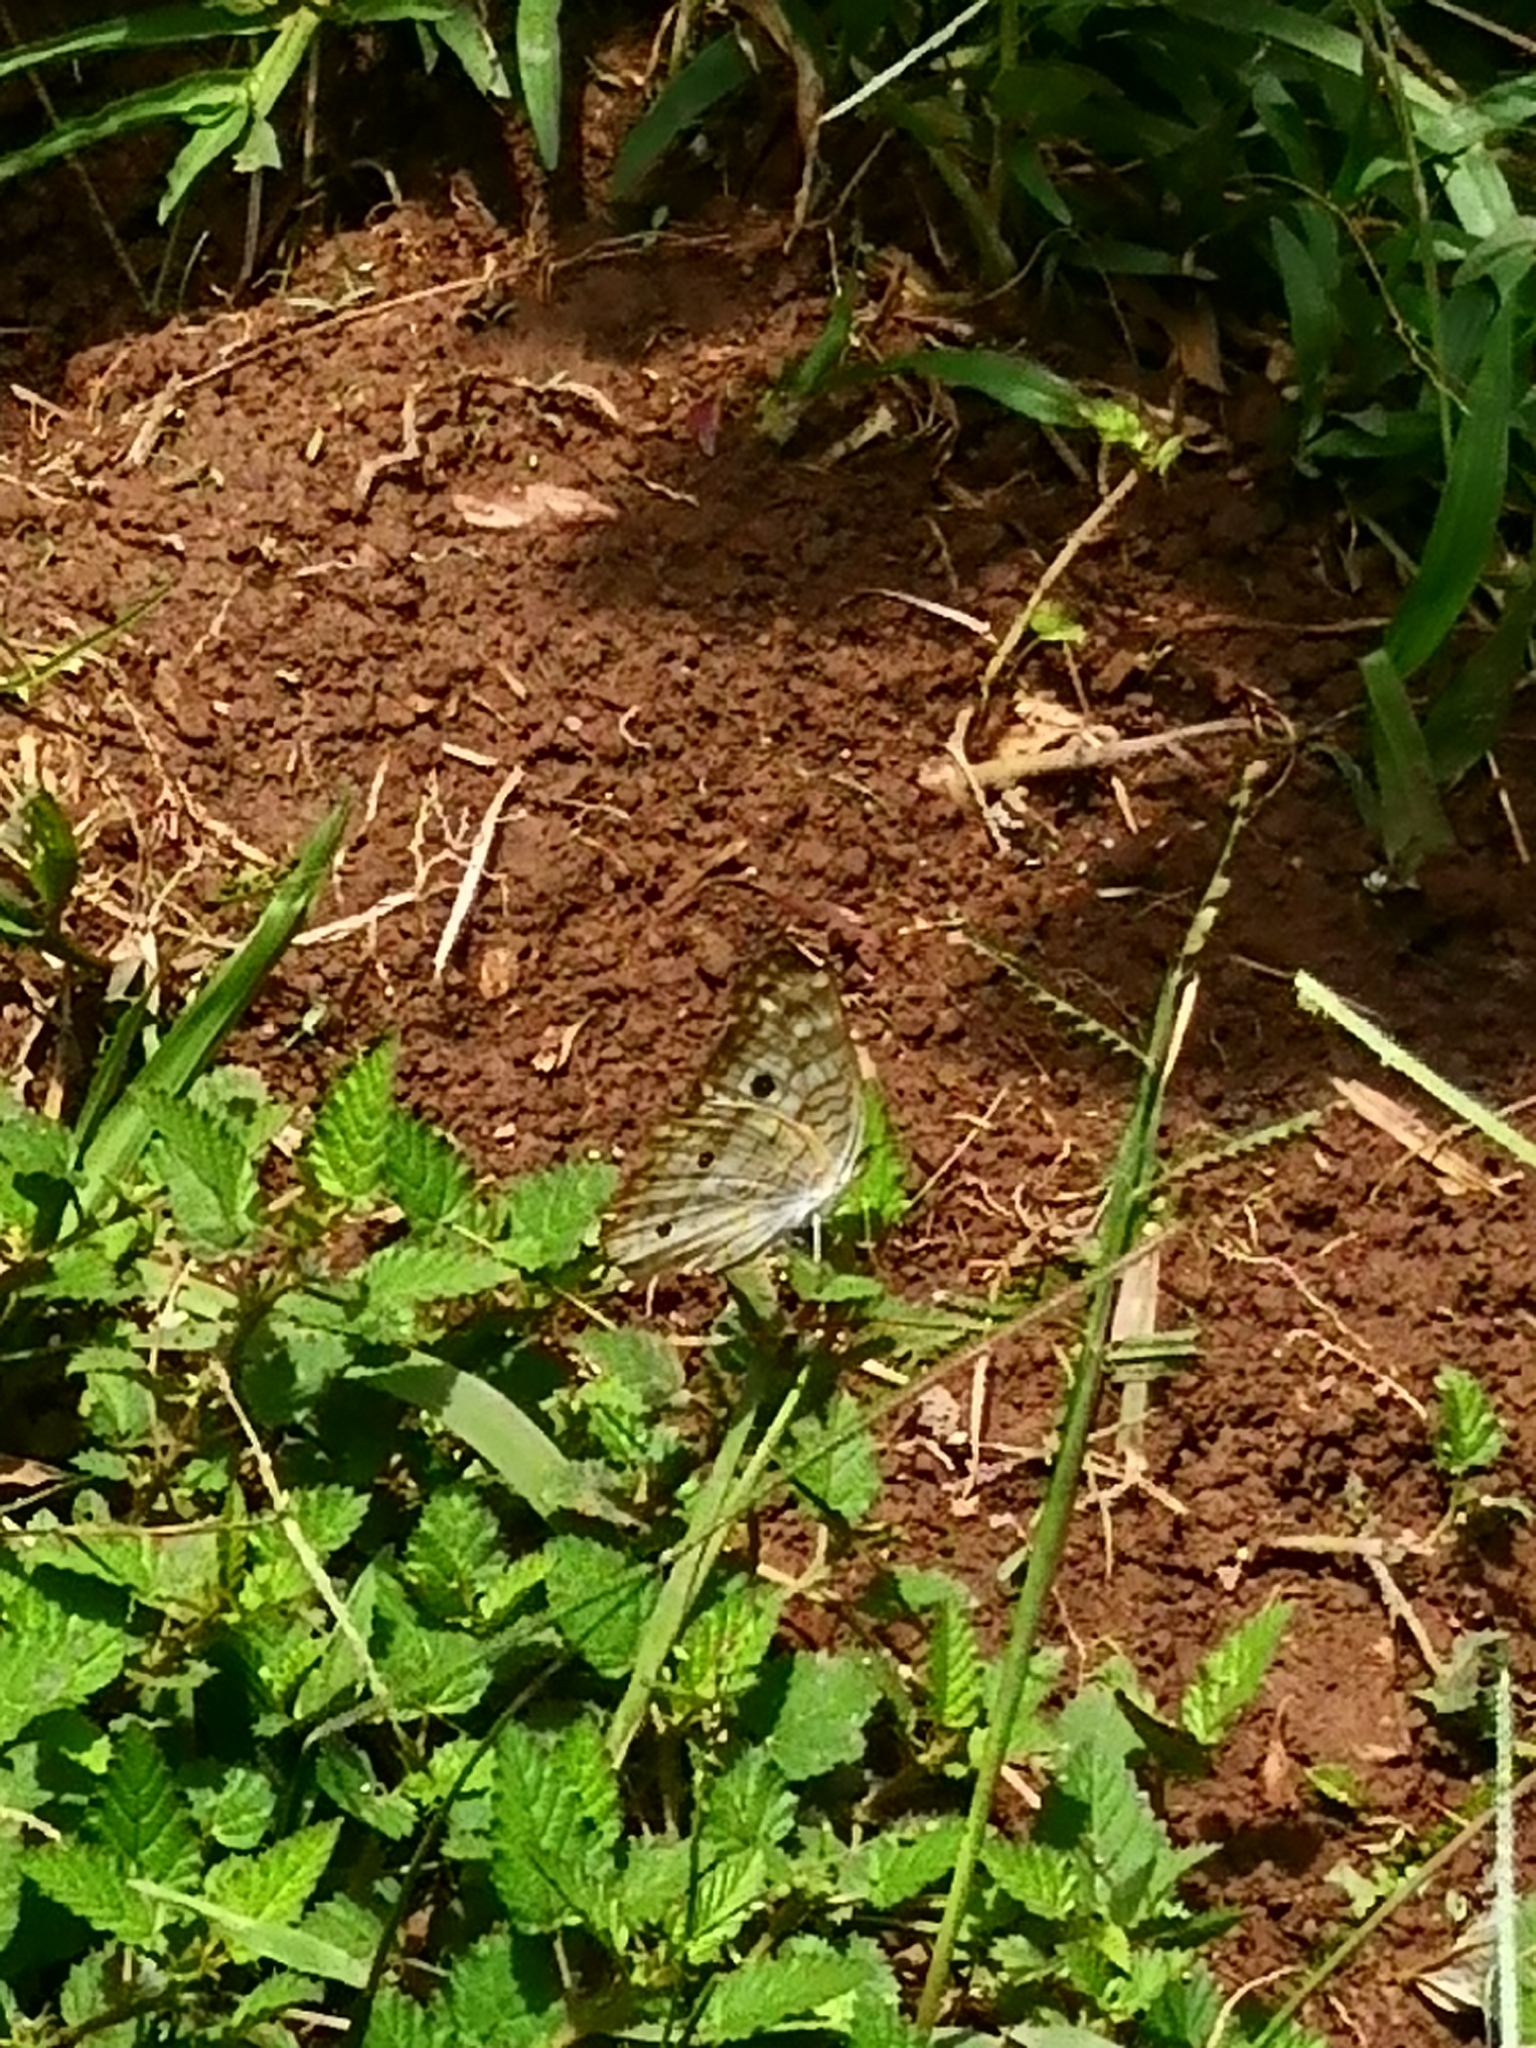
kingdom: Animalia
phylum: Arthropoda
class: Insecta
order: Lepidoptera
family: Nymphalidae
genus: Anartia
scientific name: Anartia jatrophae
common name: White peacock
